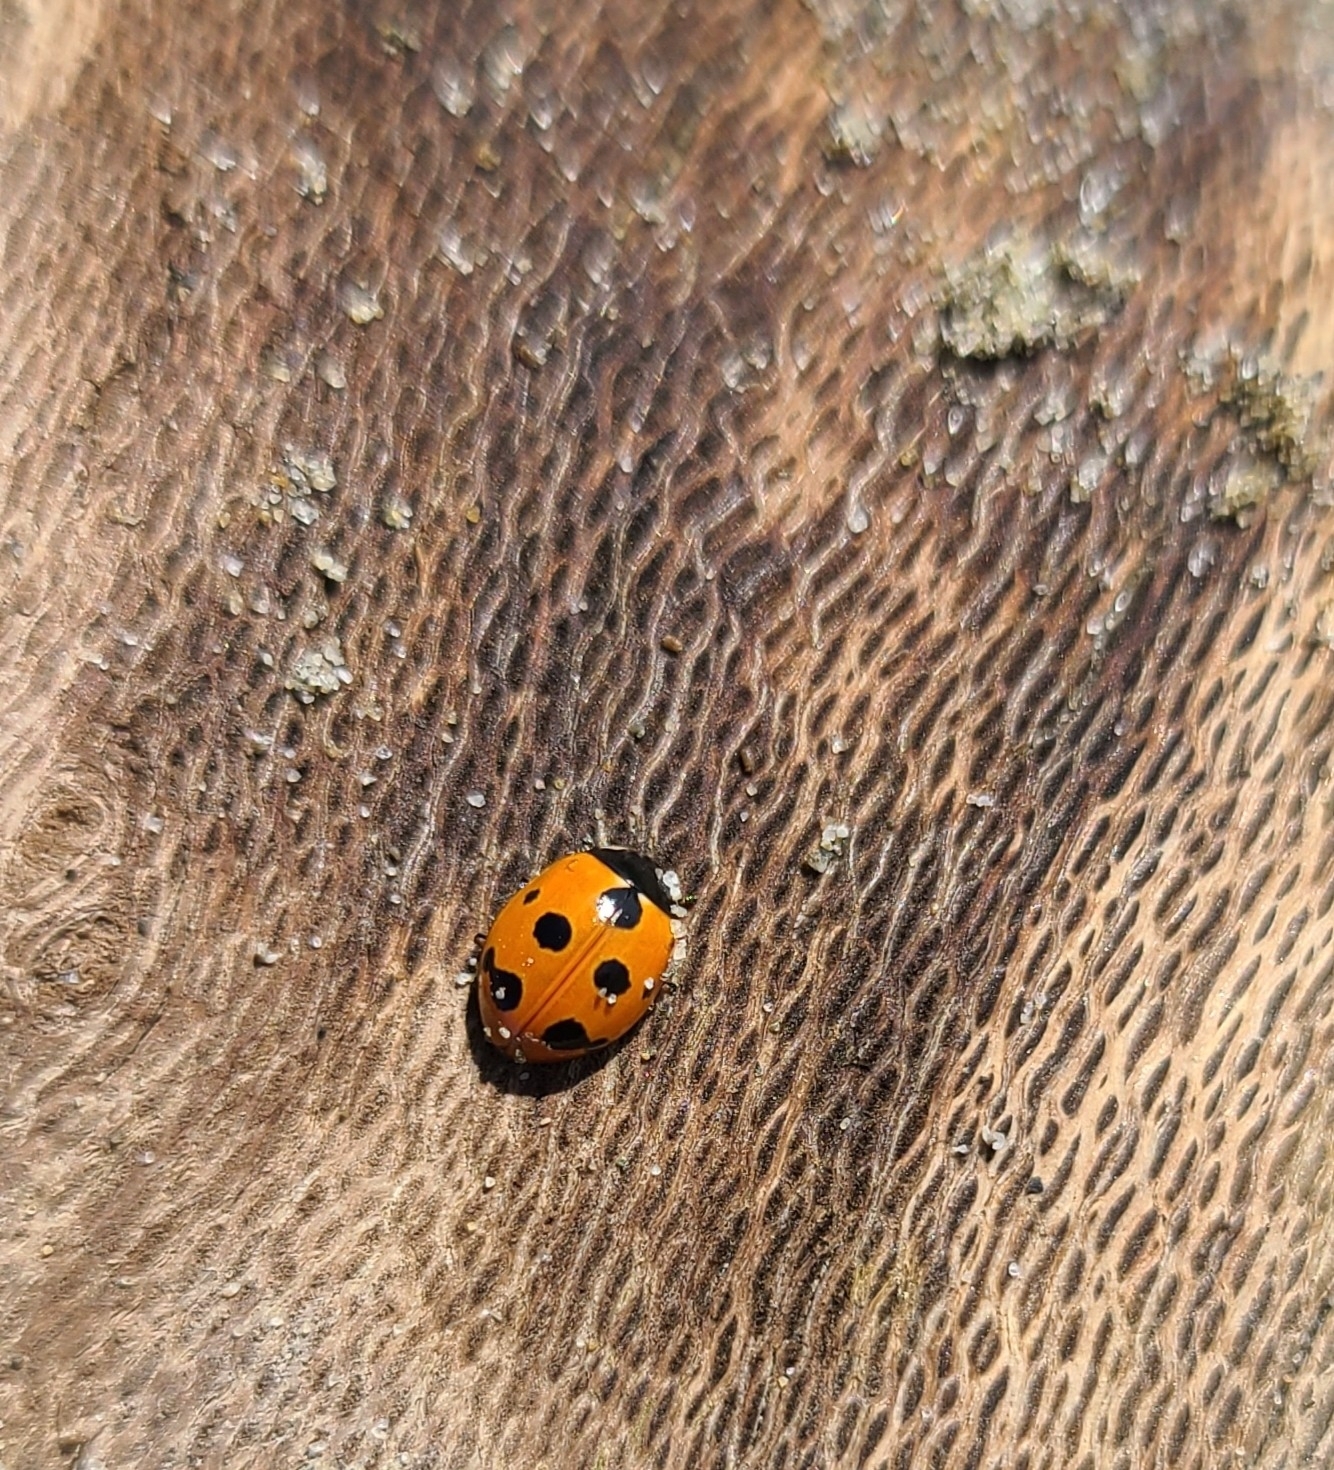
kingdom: Animalia
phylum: Arthropoda
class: Insecta
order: Coleoptera
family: Coccinellidae
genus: Coccinella
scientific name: Coccinella undecimpunctata
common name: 11-spot ladybird
